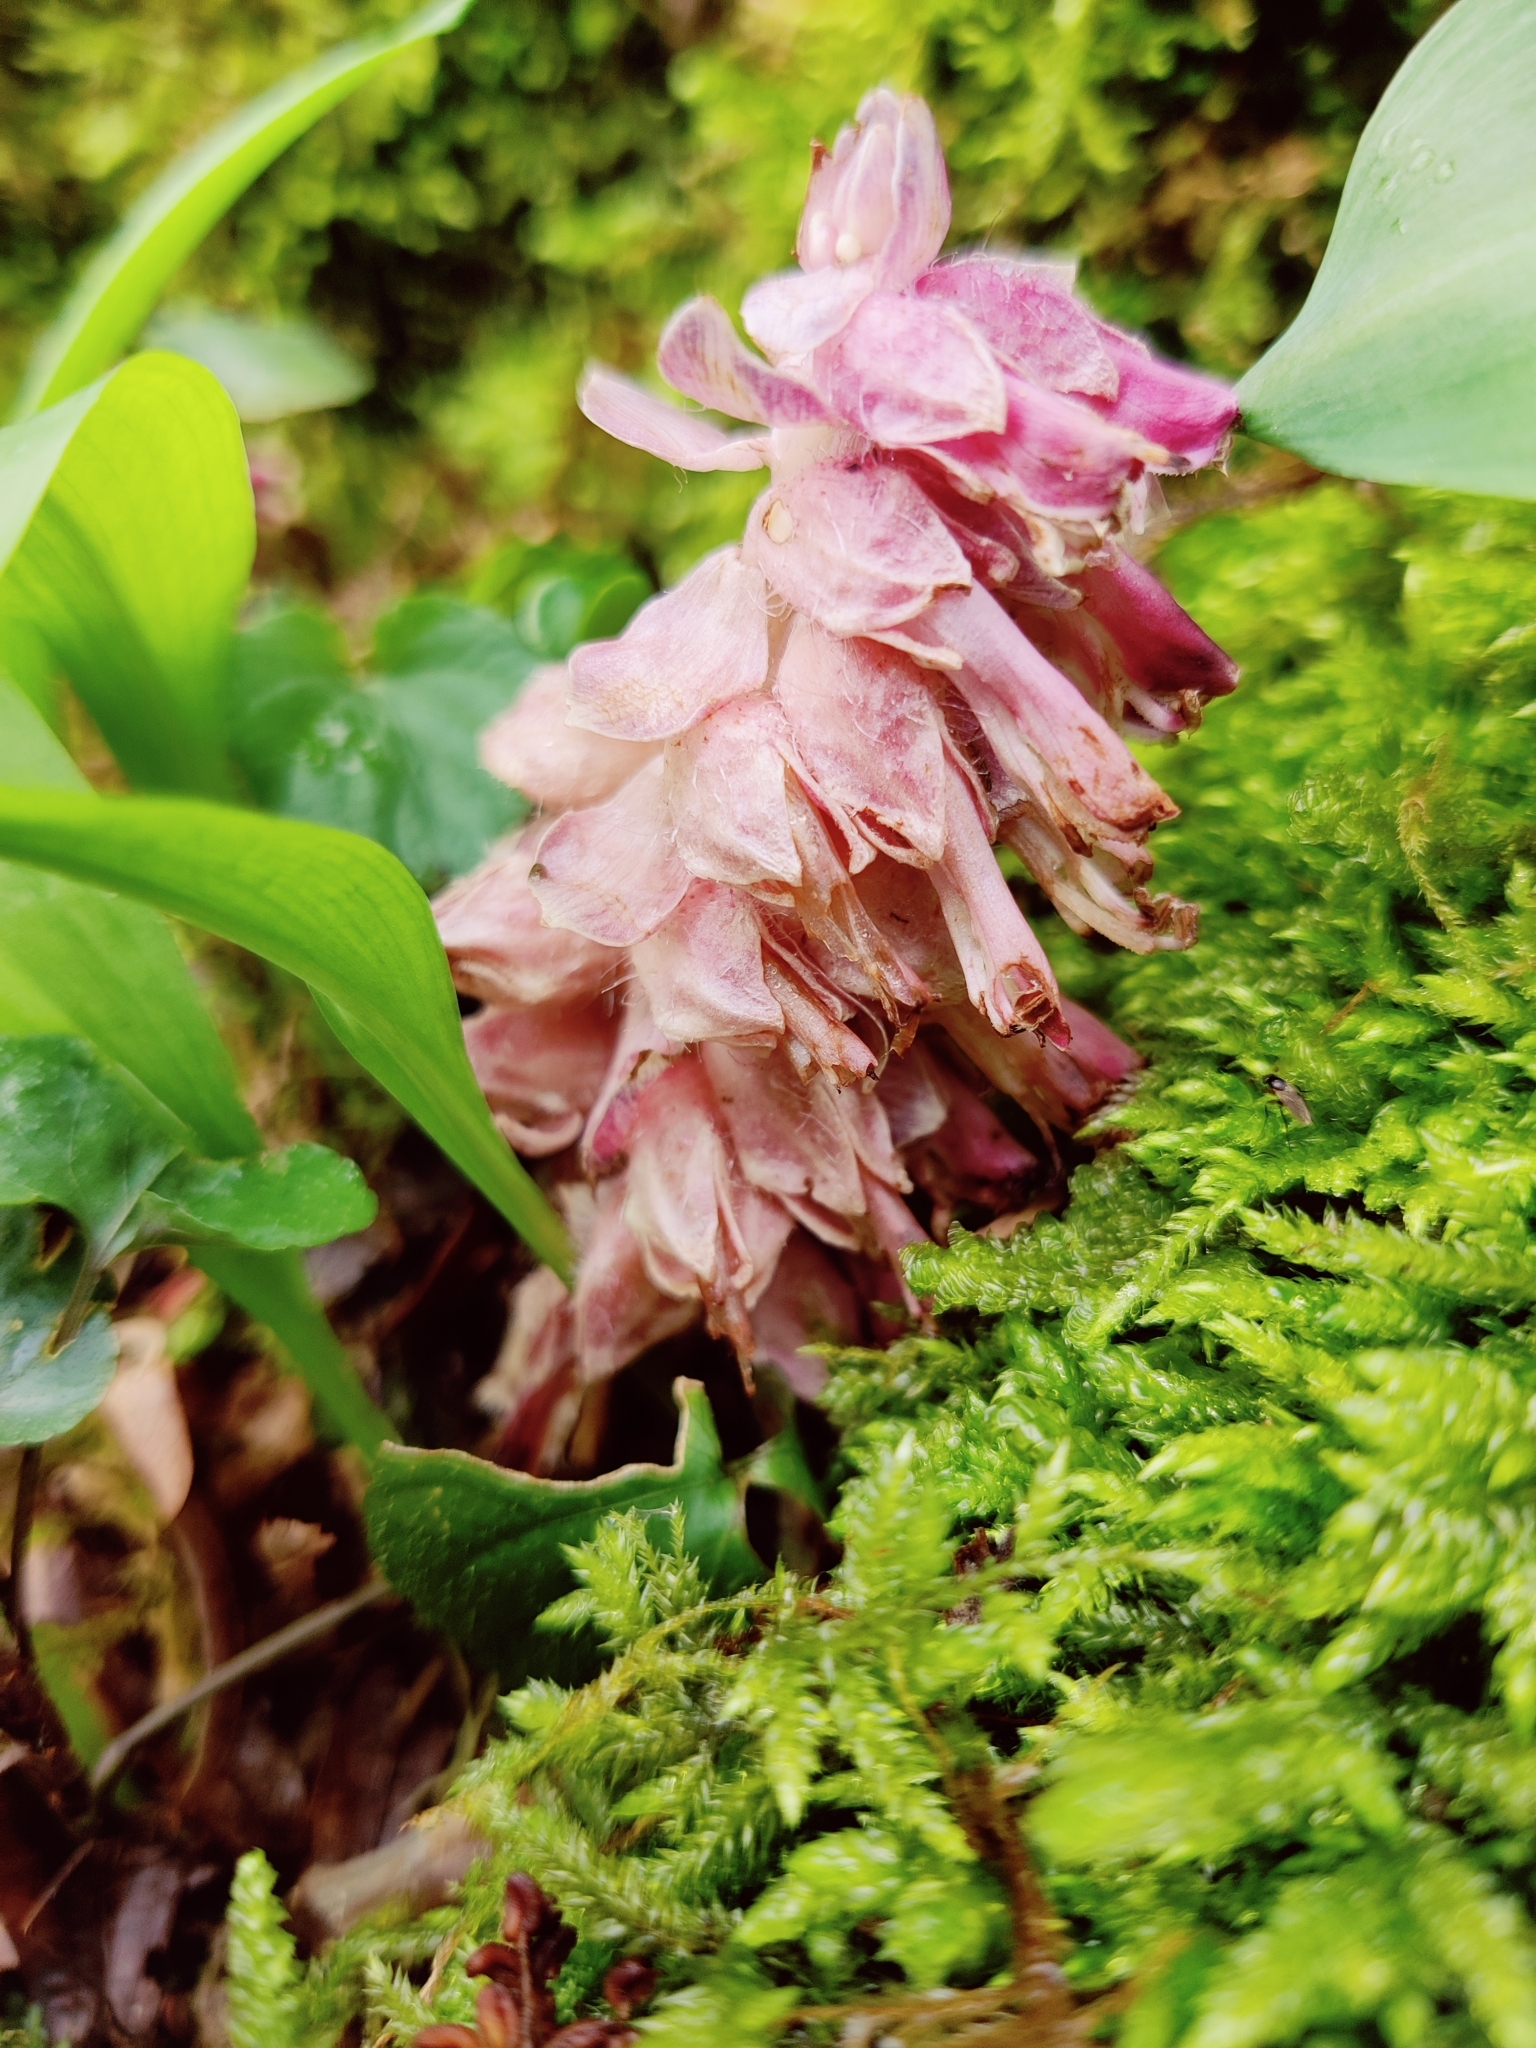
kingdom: Plantae
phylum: Tracheophyta
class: Magnoliopsida
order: Lamiales
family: Orobanchaceae
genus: Lathraea
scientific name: Lathraea squamaria
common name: Toothwort
